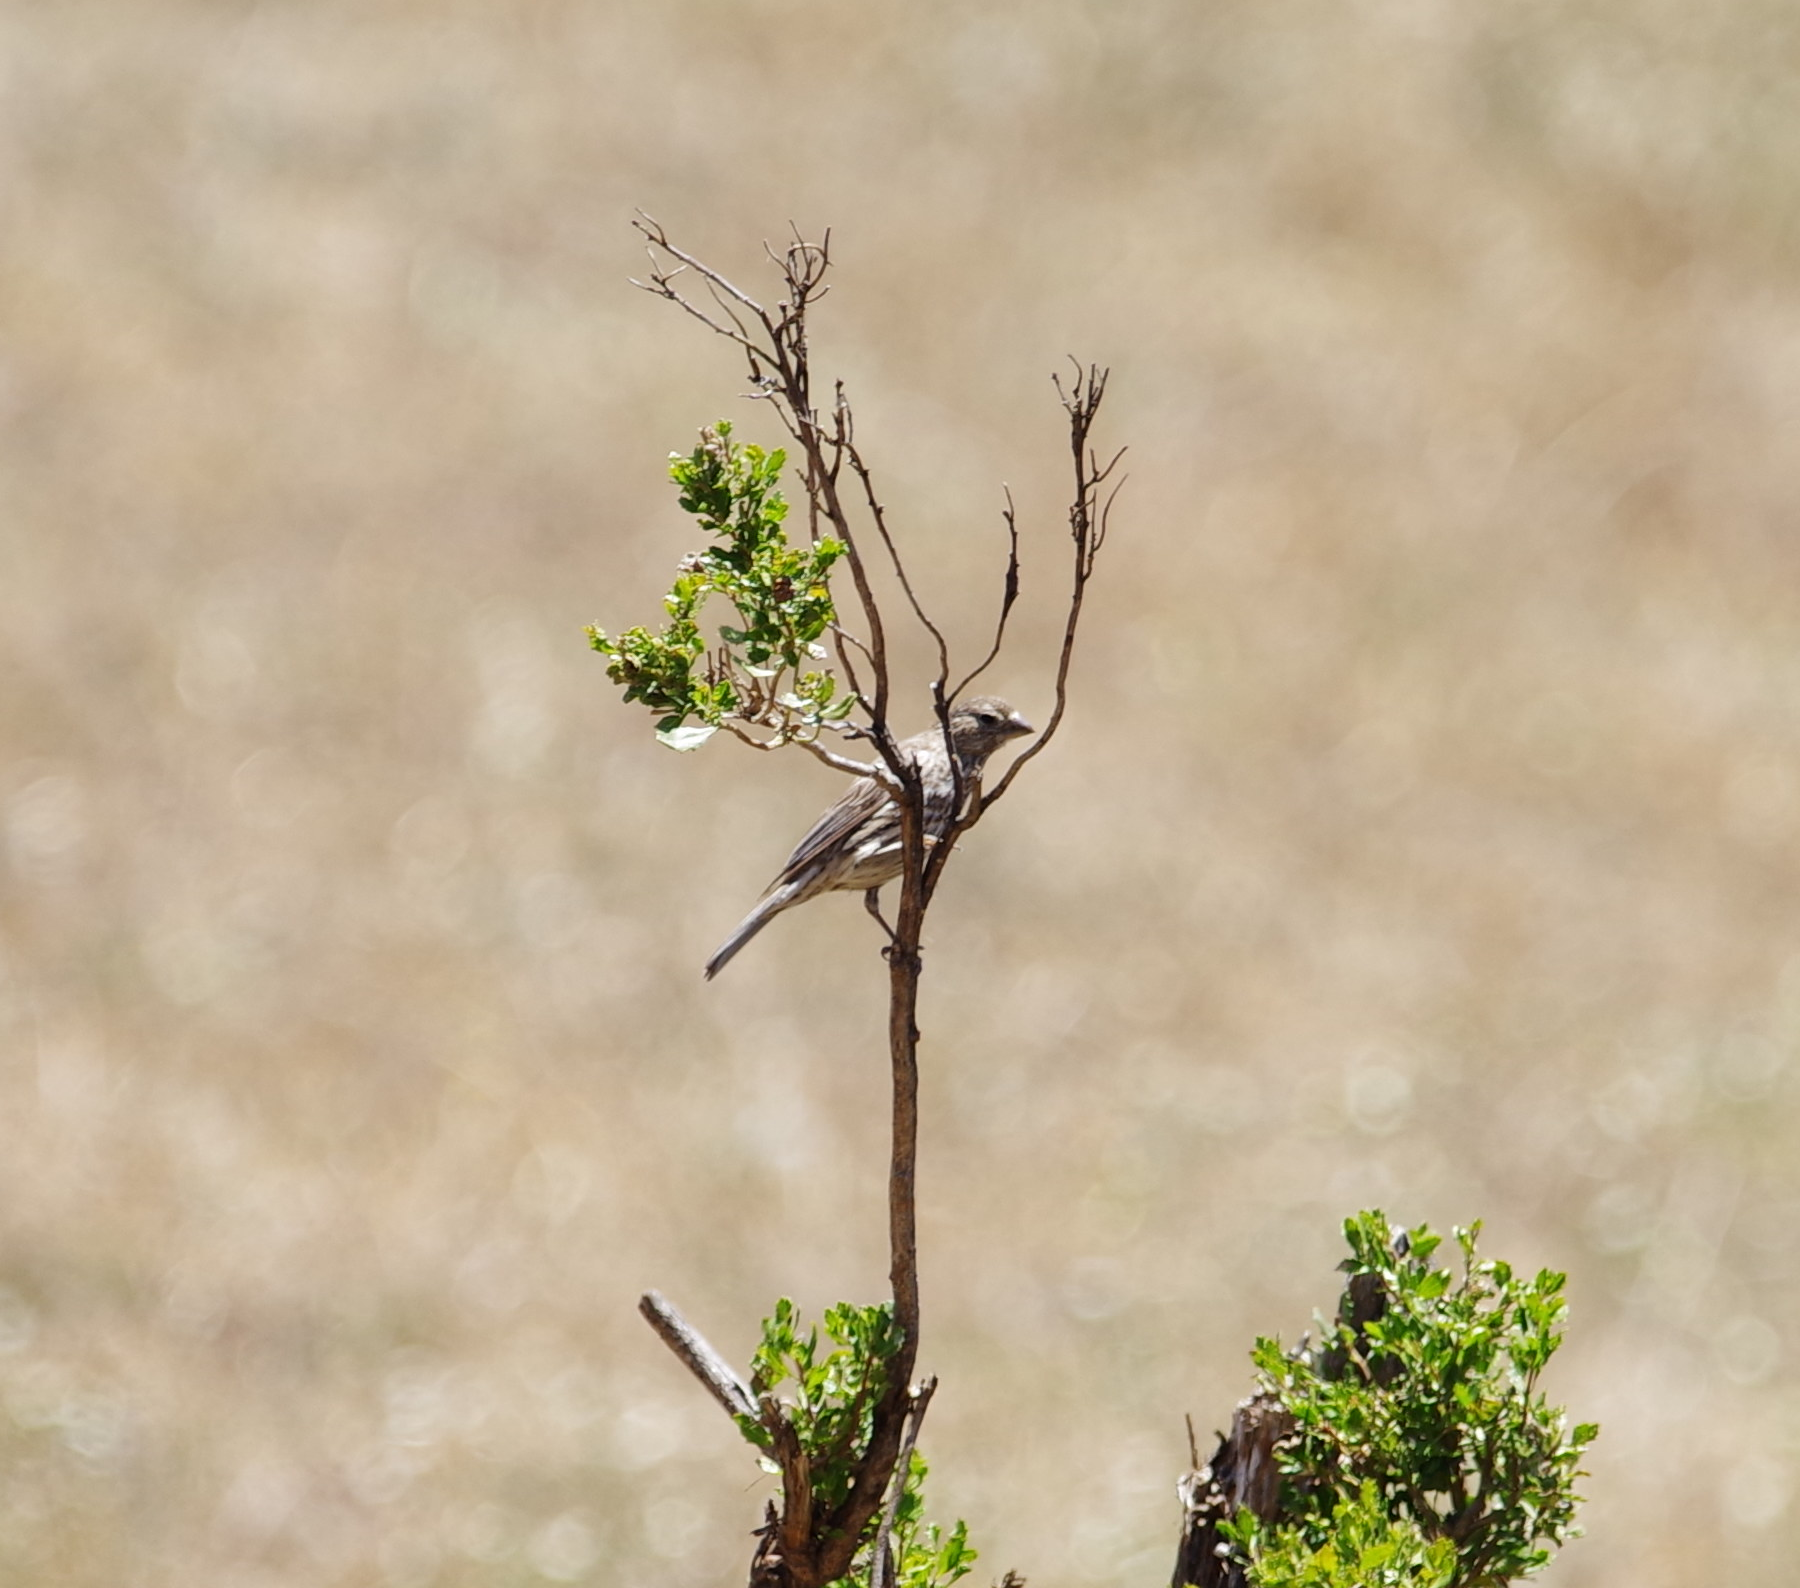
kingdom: Animalia
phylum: Chordata
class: Aves
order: Passeriformes
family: Fringillidae
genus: Haemorhous
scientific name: Haemorhous mexicanus
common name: House finch
